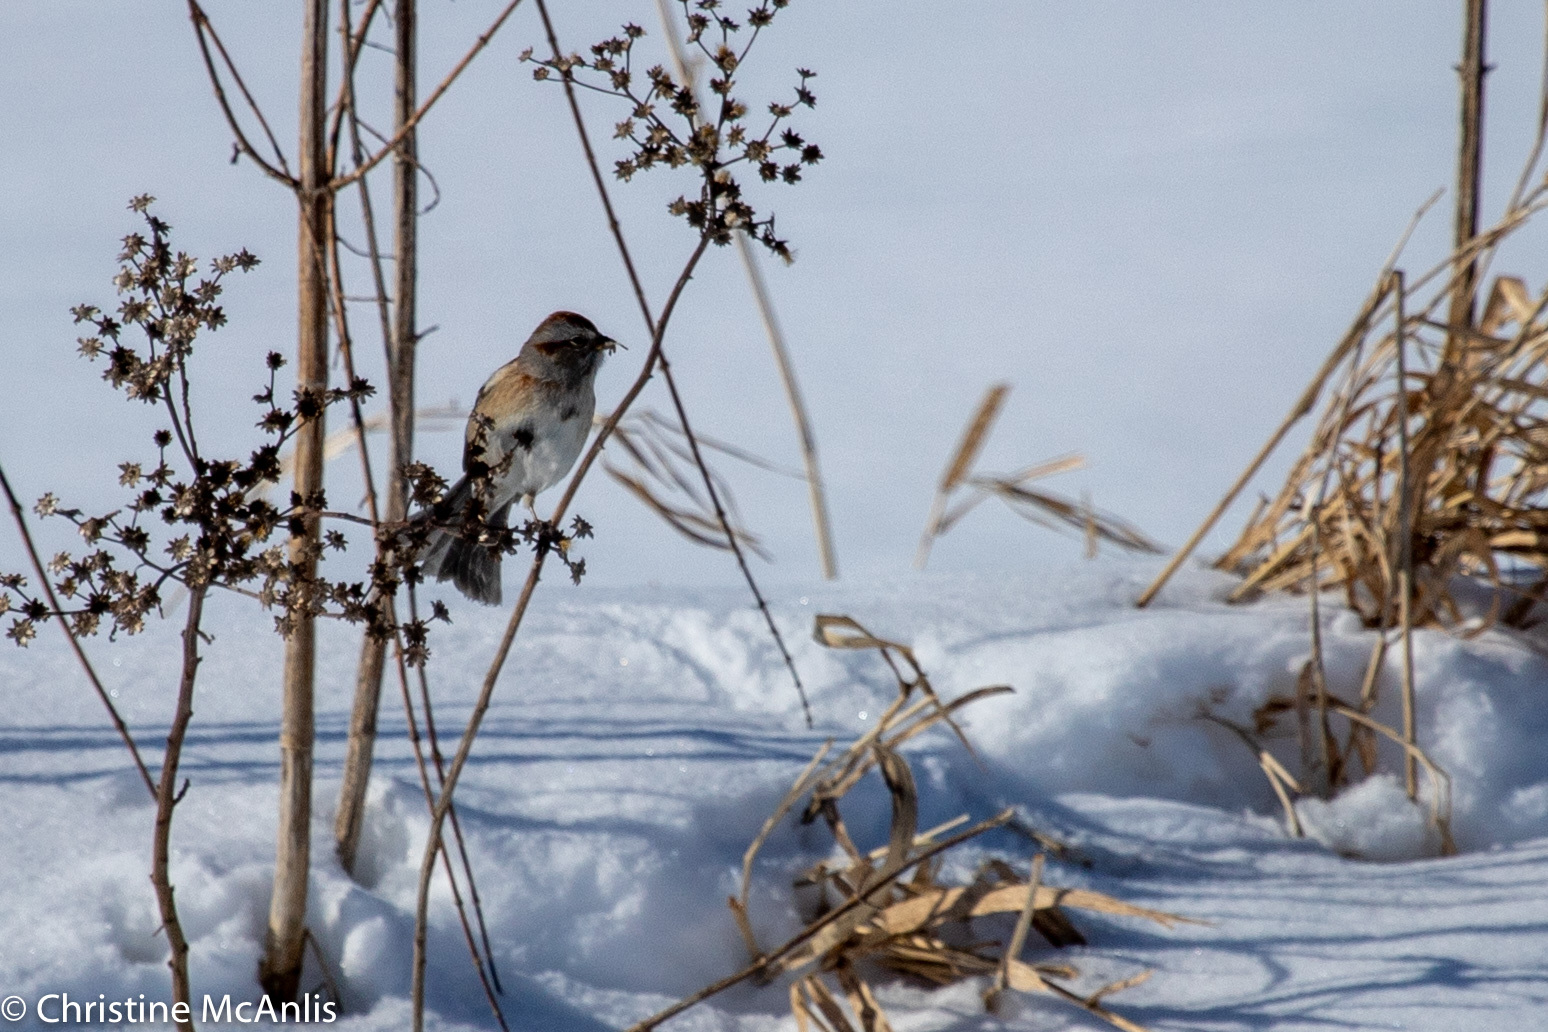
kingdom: Animalia
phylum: Chordata
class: Aves
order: Passeriformes
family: Passerellidae
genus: Spizelloides
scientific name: Spizelloides arborea
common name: American tree sparrow
